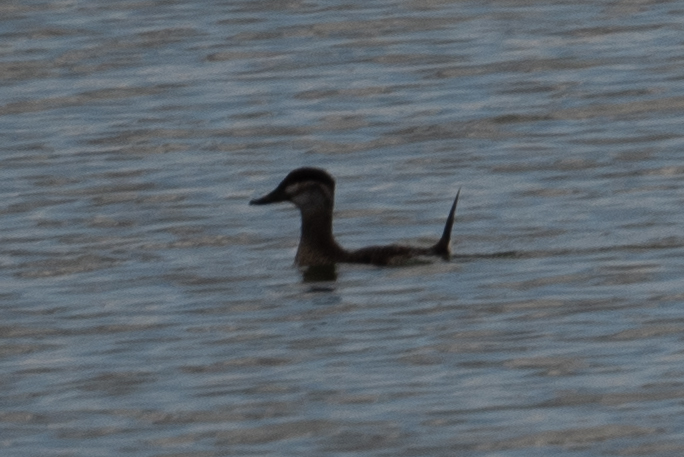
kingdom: Animalia
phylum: Chordata
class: Aves
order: Anseriformes
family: Anatidae
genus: Oxyura
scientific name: Oxyura jamaicensis
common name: Ruddy duck
